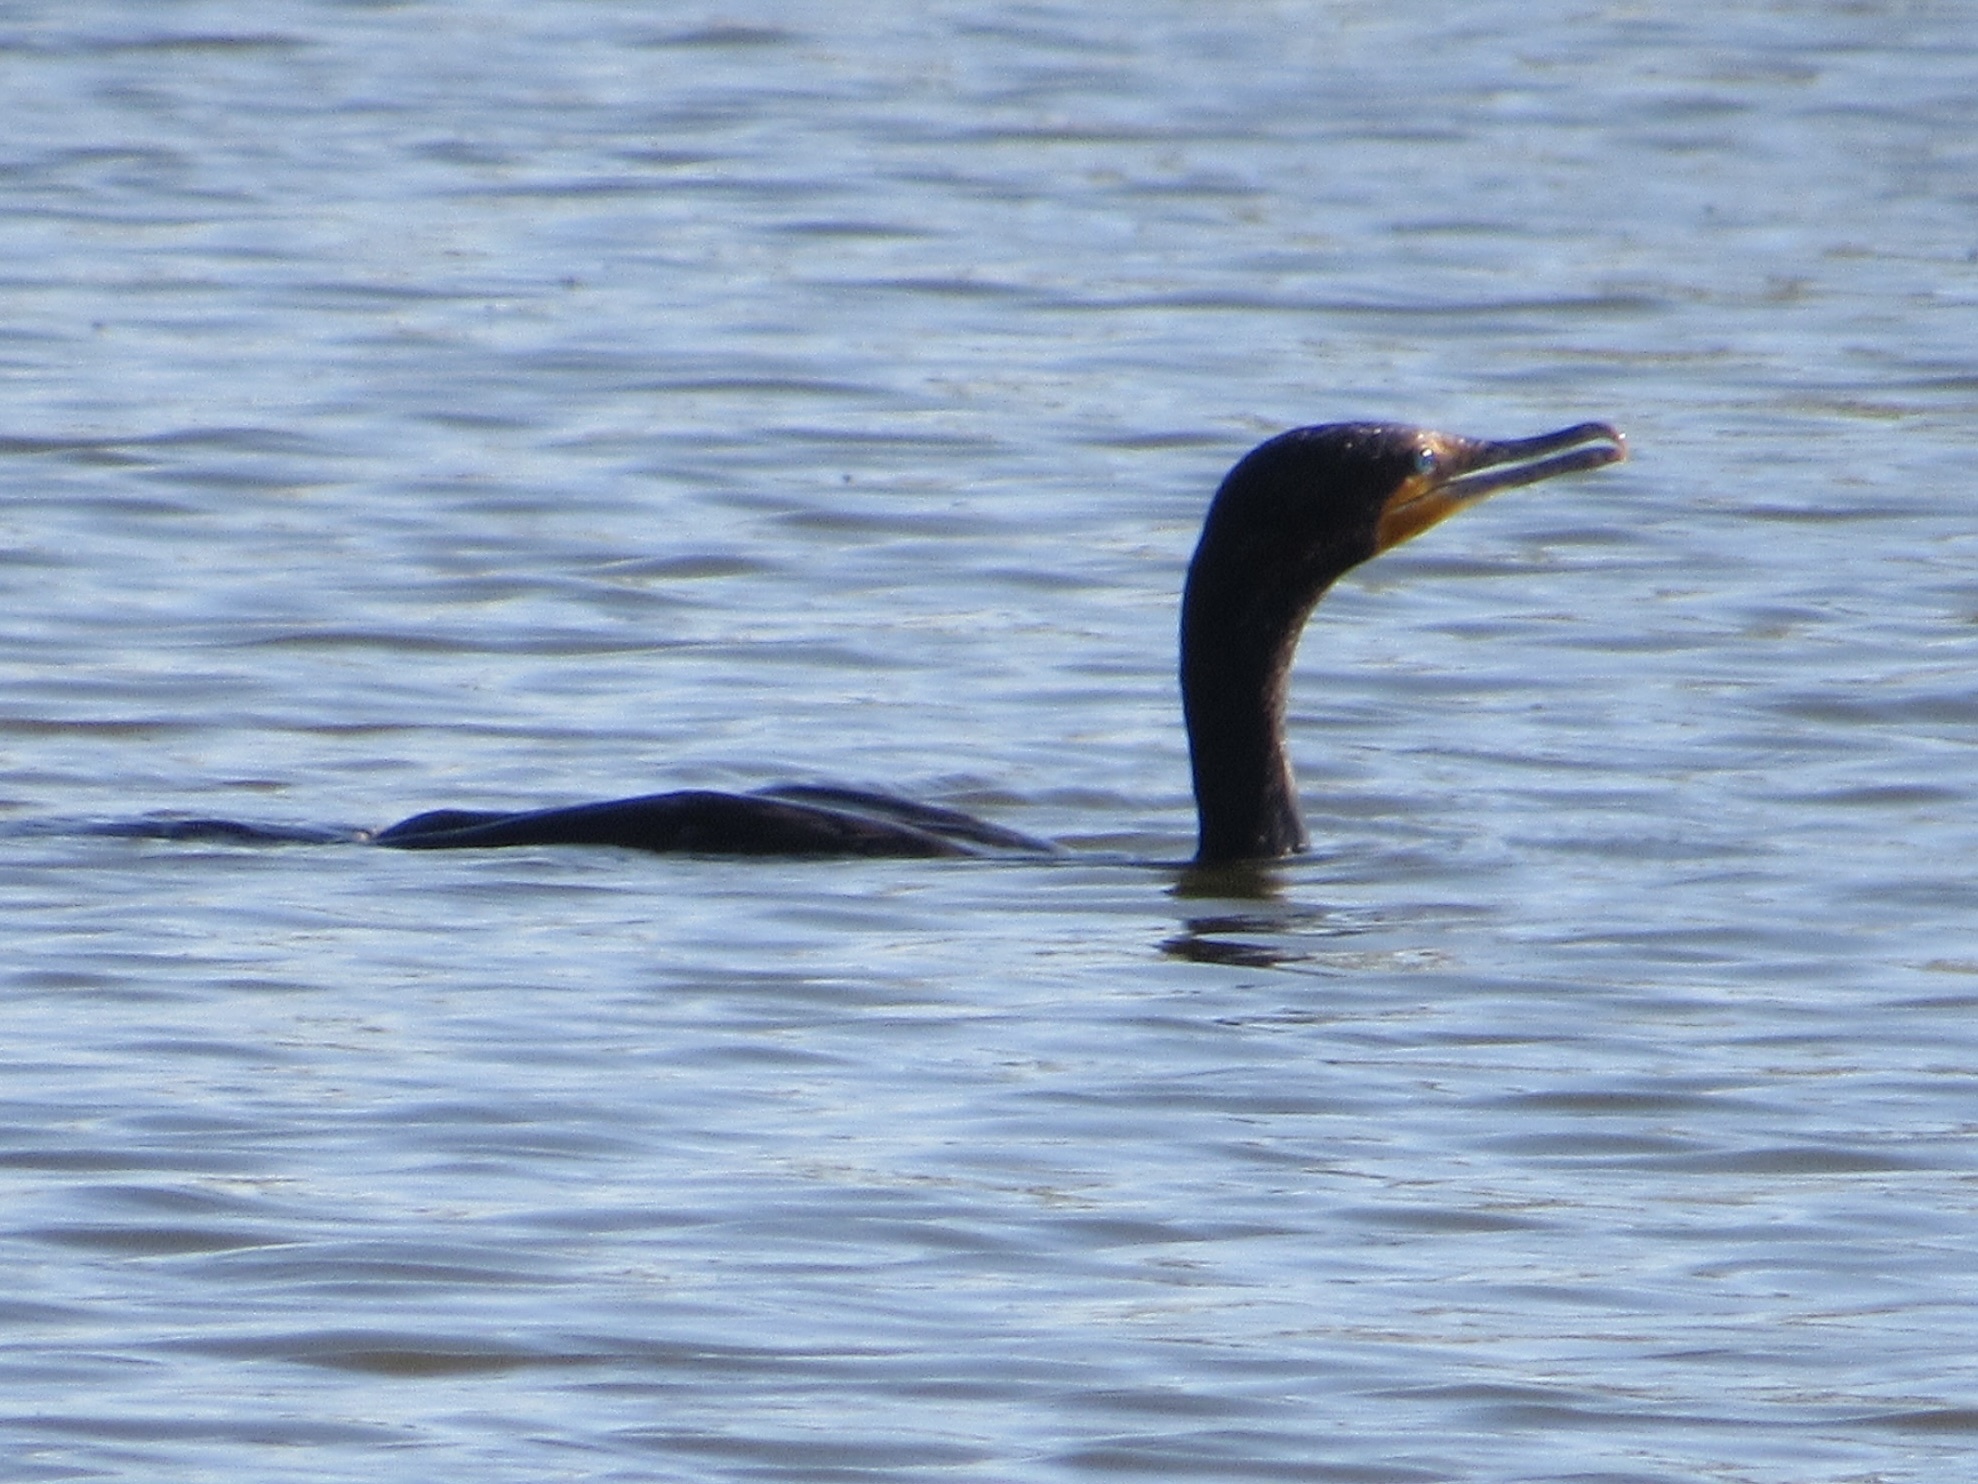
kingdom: Animalia
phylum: Chordata
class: Aves
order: Suliformes
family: Phalacrocoracidae
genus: Phalacrocorax
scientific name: Phalacrocorax auritus
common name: Double-crested cormorant
